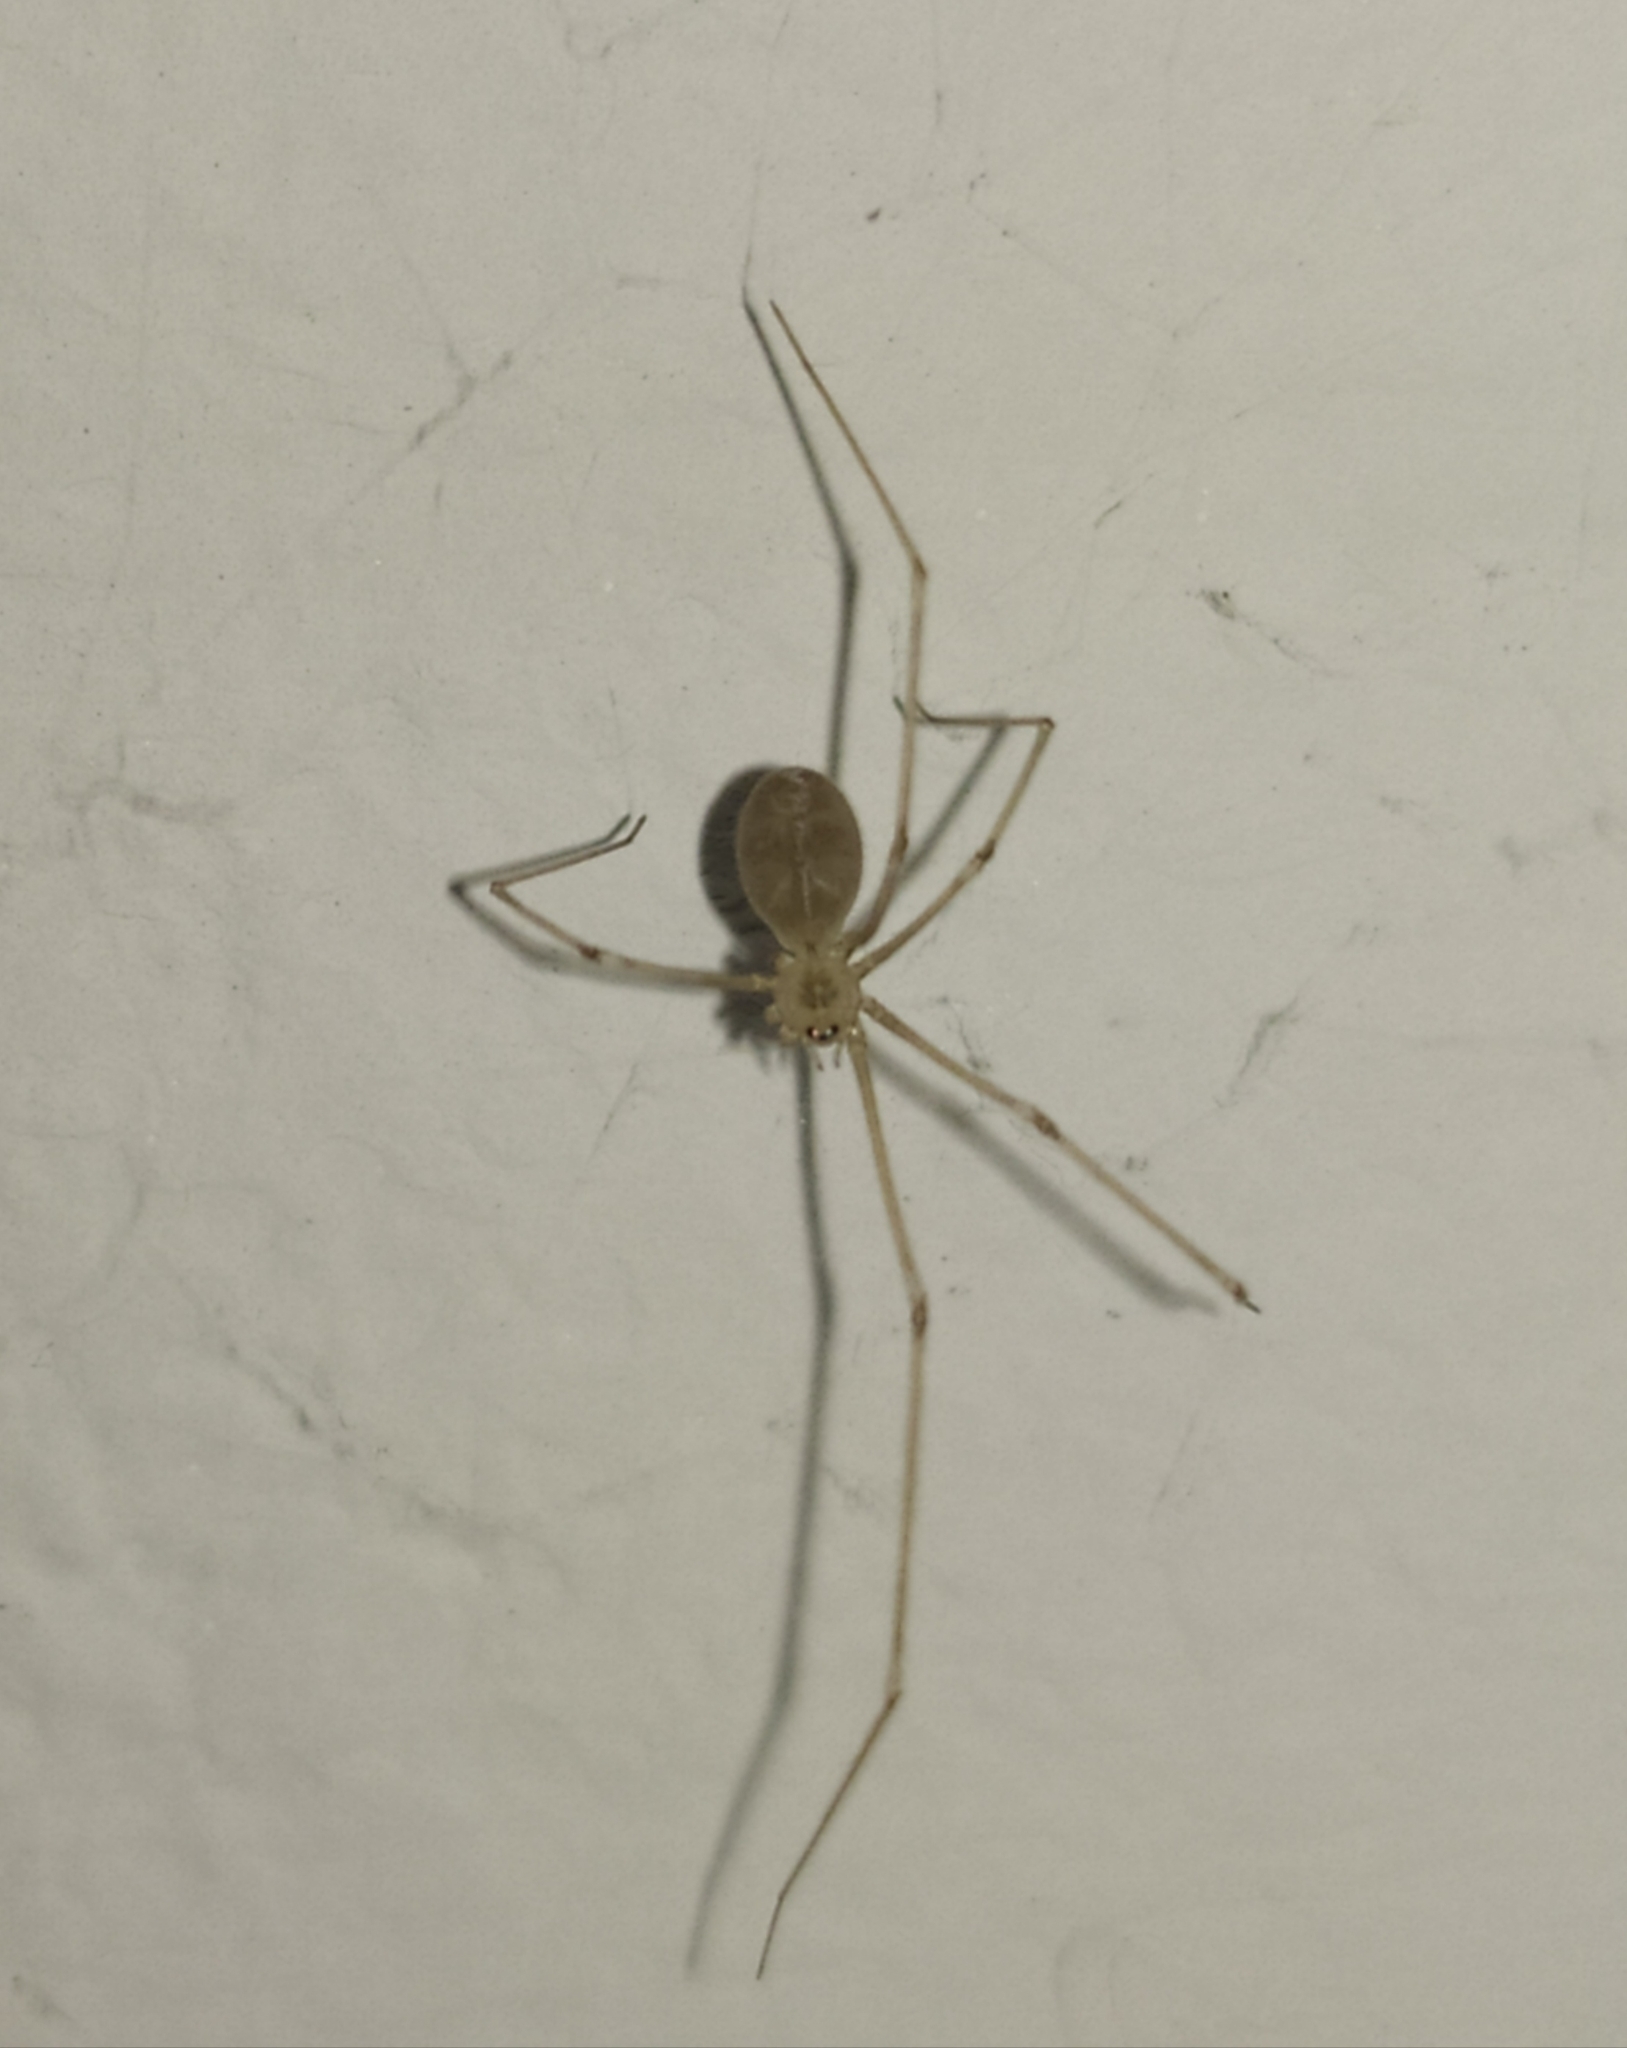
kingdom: Animalia
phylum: Arthropoda
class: Arachnida
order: Araneae
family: Pholcidae
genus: Pholcus
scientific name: Pholcus phalangioides
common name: Longbodied cellar spider
